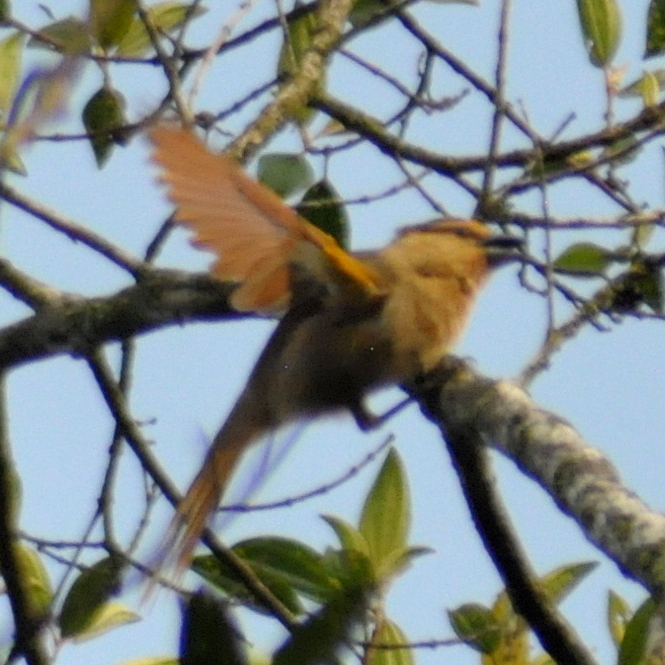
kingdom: Animalia
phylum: Chordata
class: Aves
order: Passeriformes
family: Thraupidae
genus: Orchesticus
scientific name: Orchesticus abeillei
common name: Brown tanager
